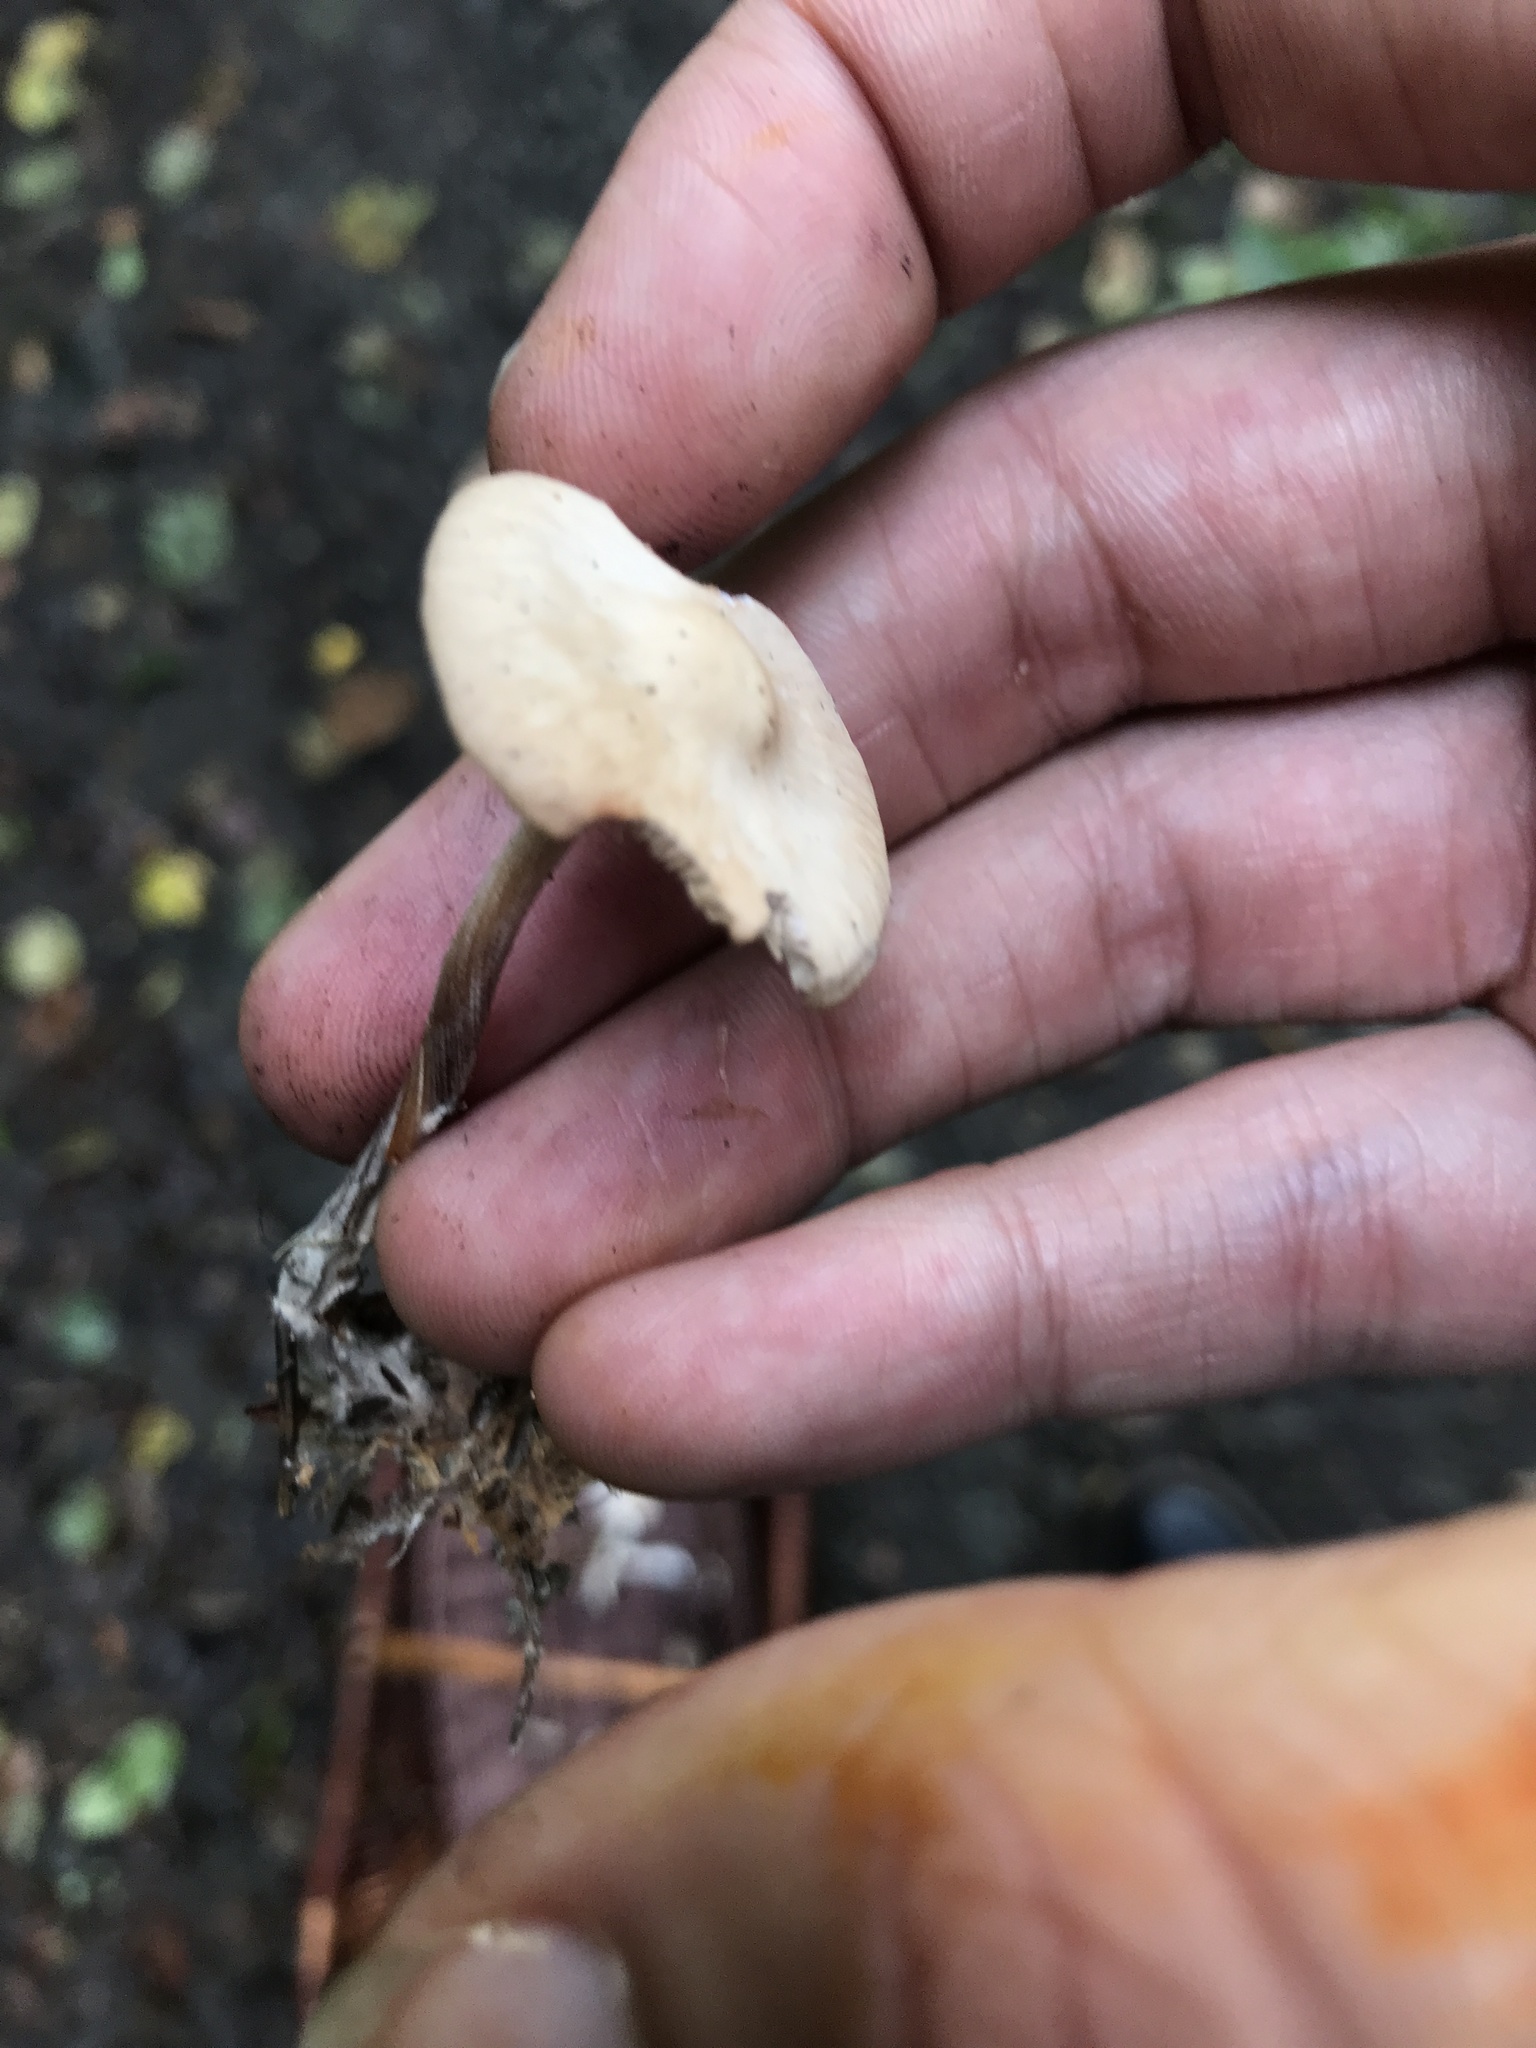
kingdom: Fungi
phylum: Basidiomycota
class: Agaricomycetes
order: Agaricales
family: Omphalotaceae
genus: Collybiopsis
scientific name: Collybiopsis confluens
